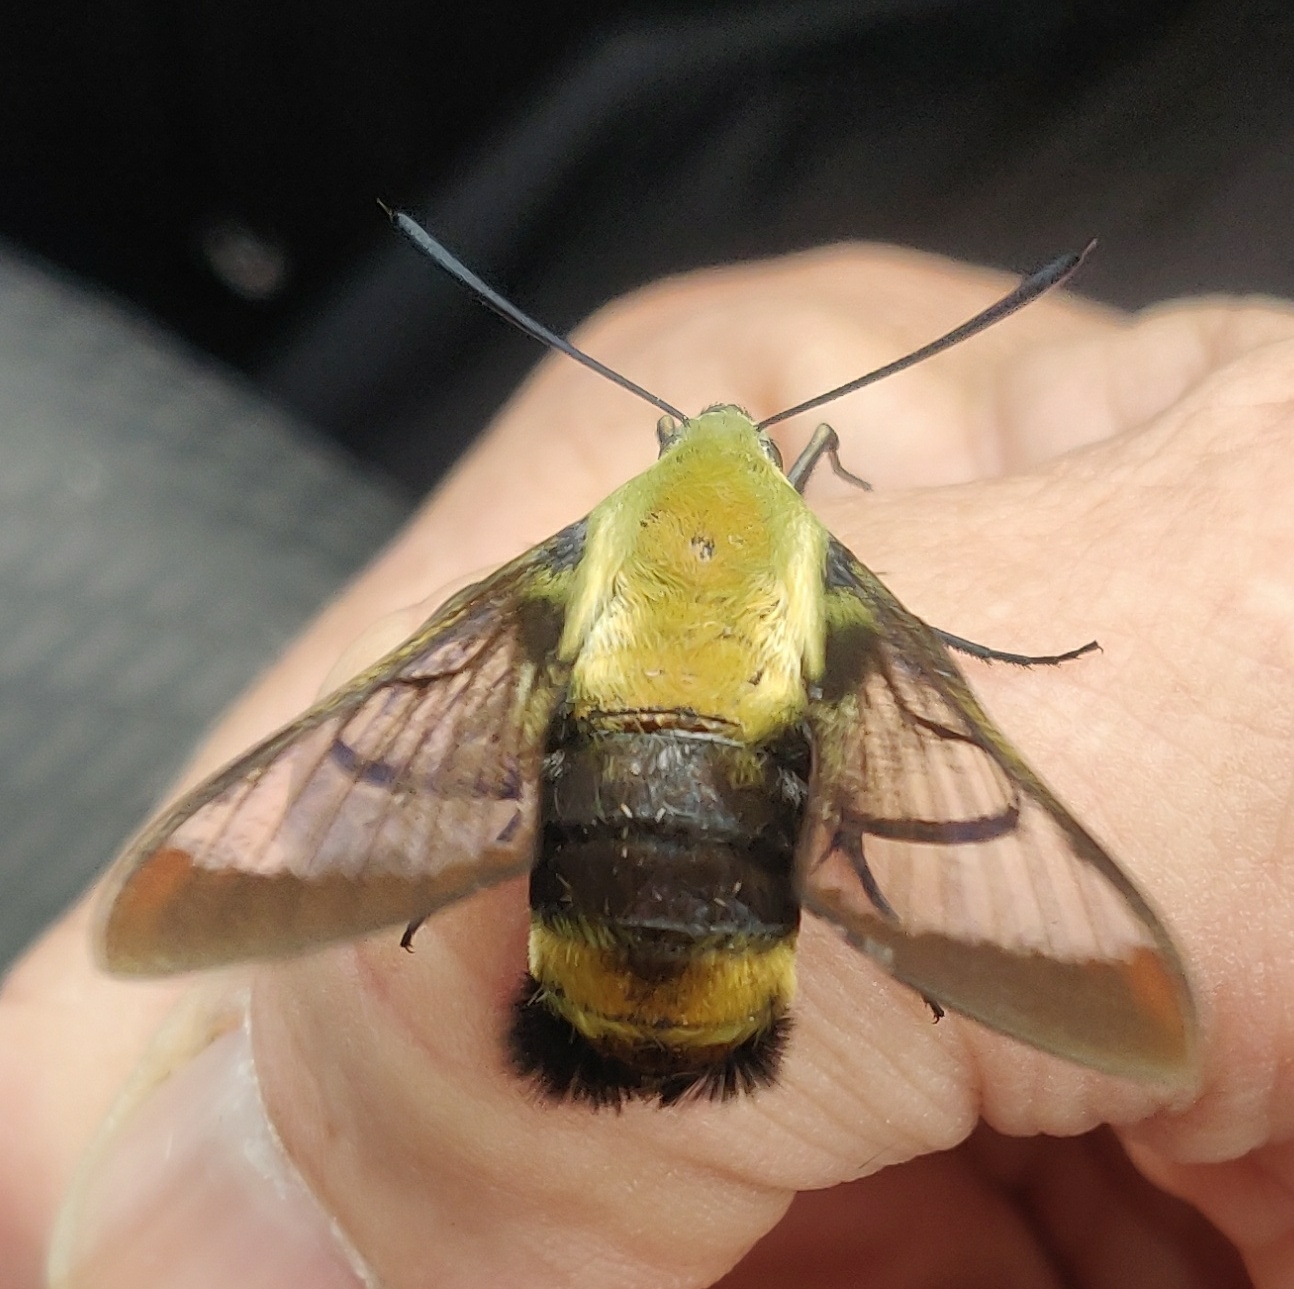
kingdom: Animalia
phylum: Arthropoda
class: Insecta
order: Lepidoptera
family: Sphingidae
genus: Hemaris
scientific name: Hemaris diffinis
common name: Bumblebee moth
